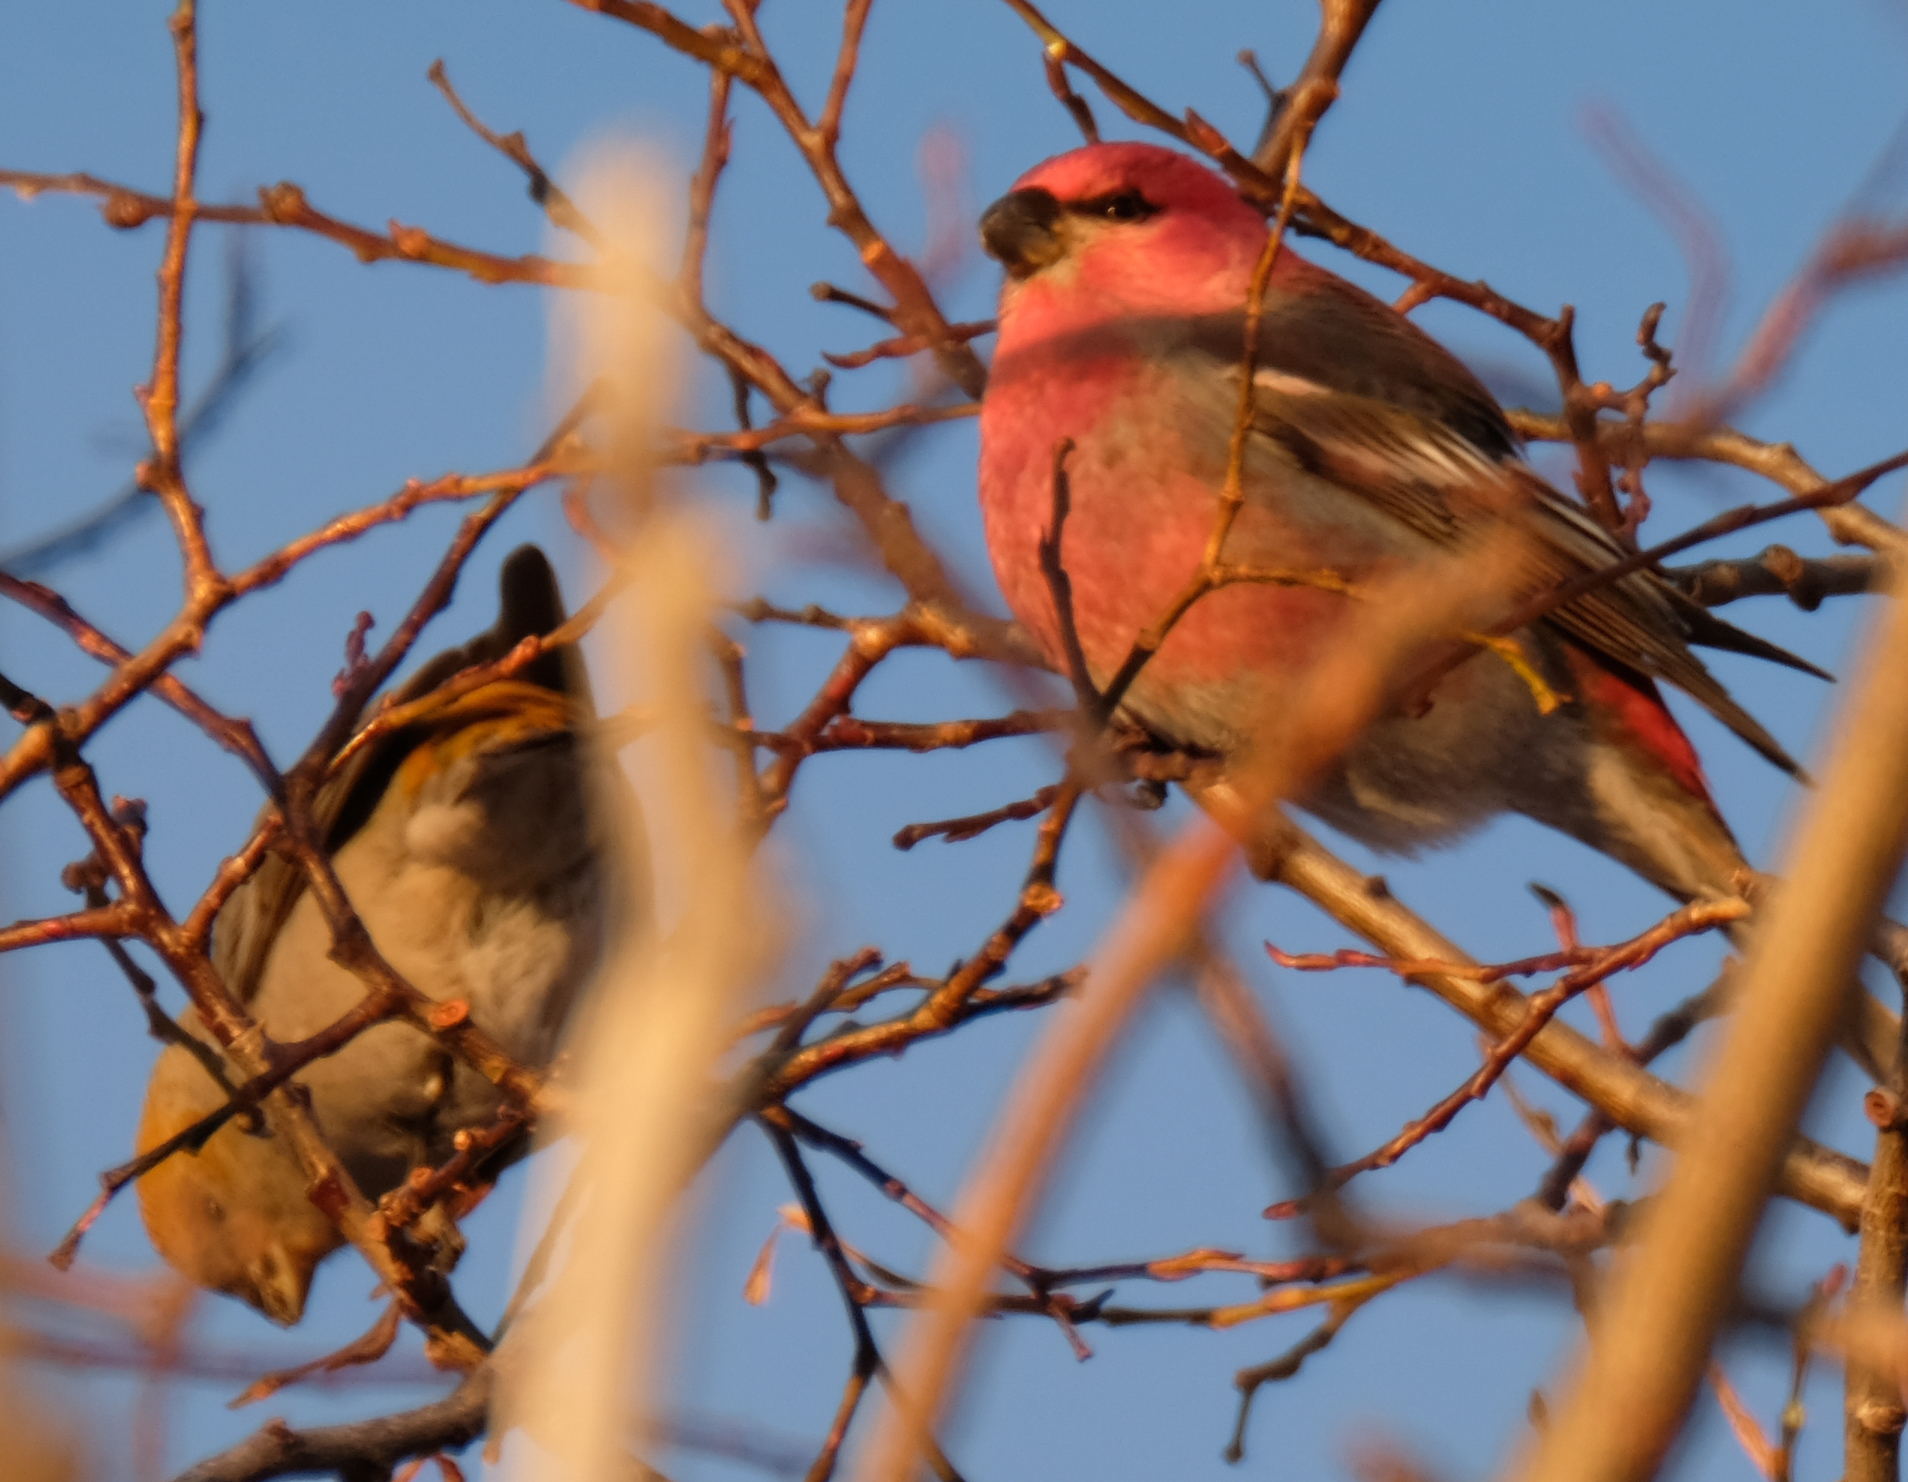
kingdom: Animalia
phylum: Chordata
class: Aves
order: Passeriformes
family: Fringillidae
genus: Pinicola
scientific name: Pinicola enucleator
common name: Pine grosbeak
